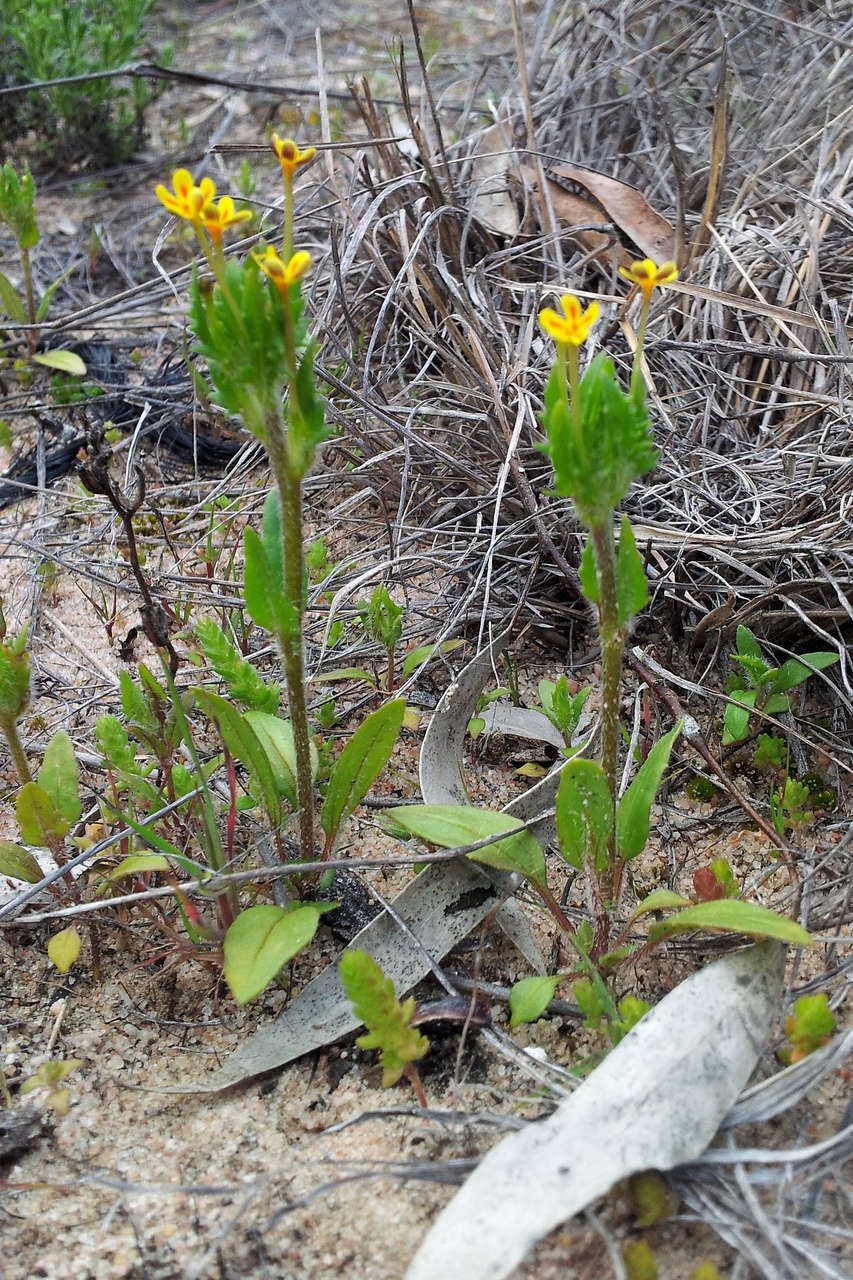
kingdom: Plantae
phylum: Tracheophyta
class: Magnoliopsida
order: Lamiales
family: Scrophulariaceae
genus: Zaluzianskya
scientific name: Zaluzianskya divaricata
